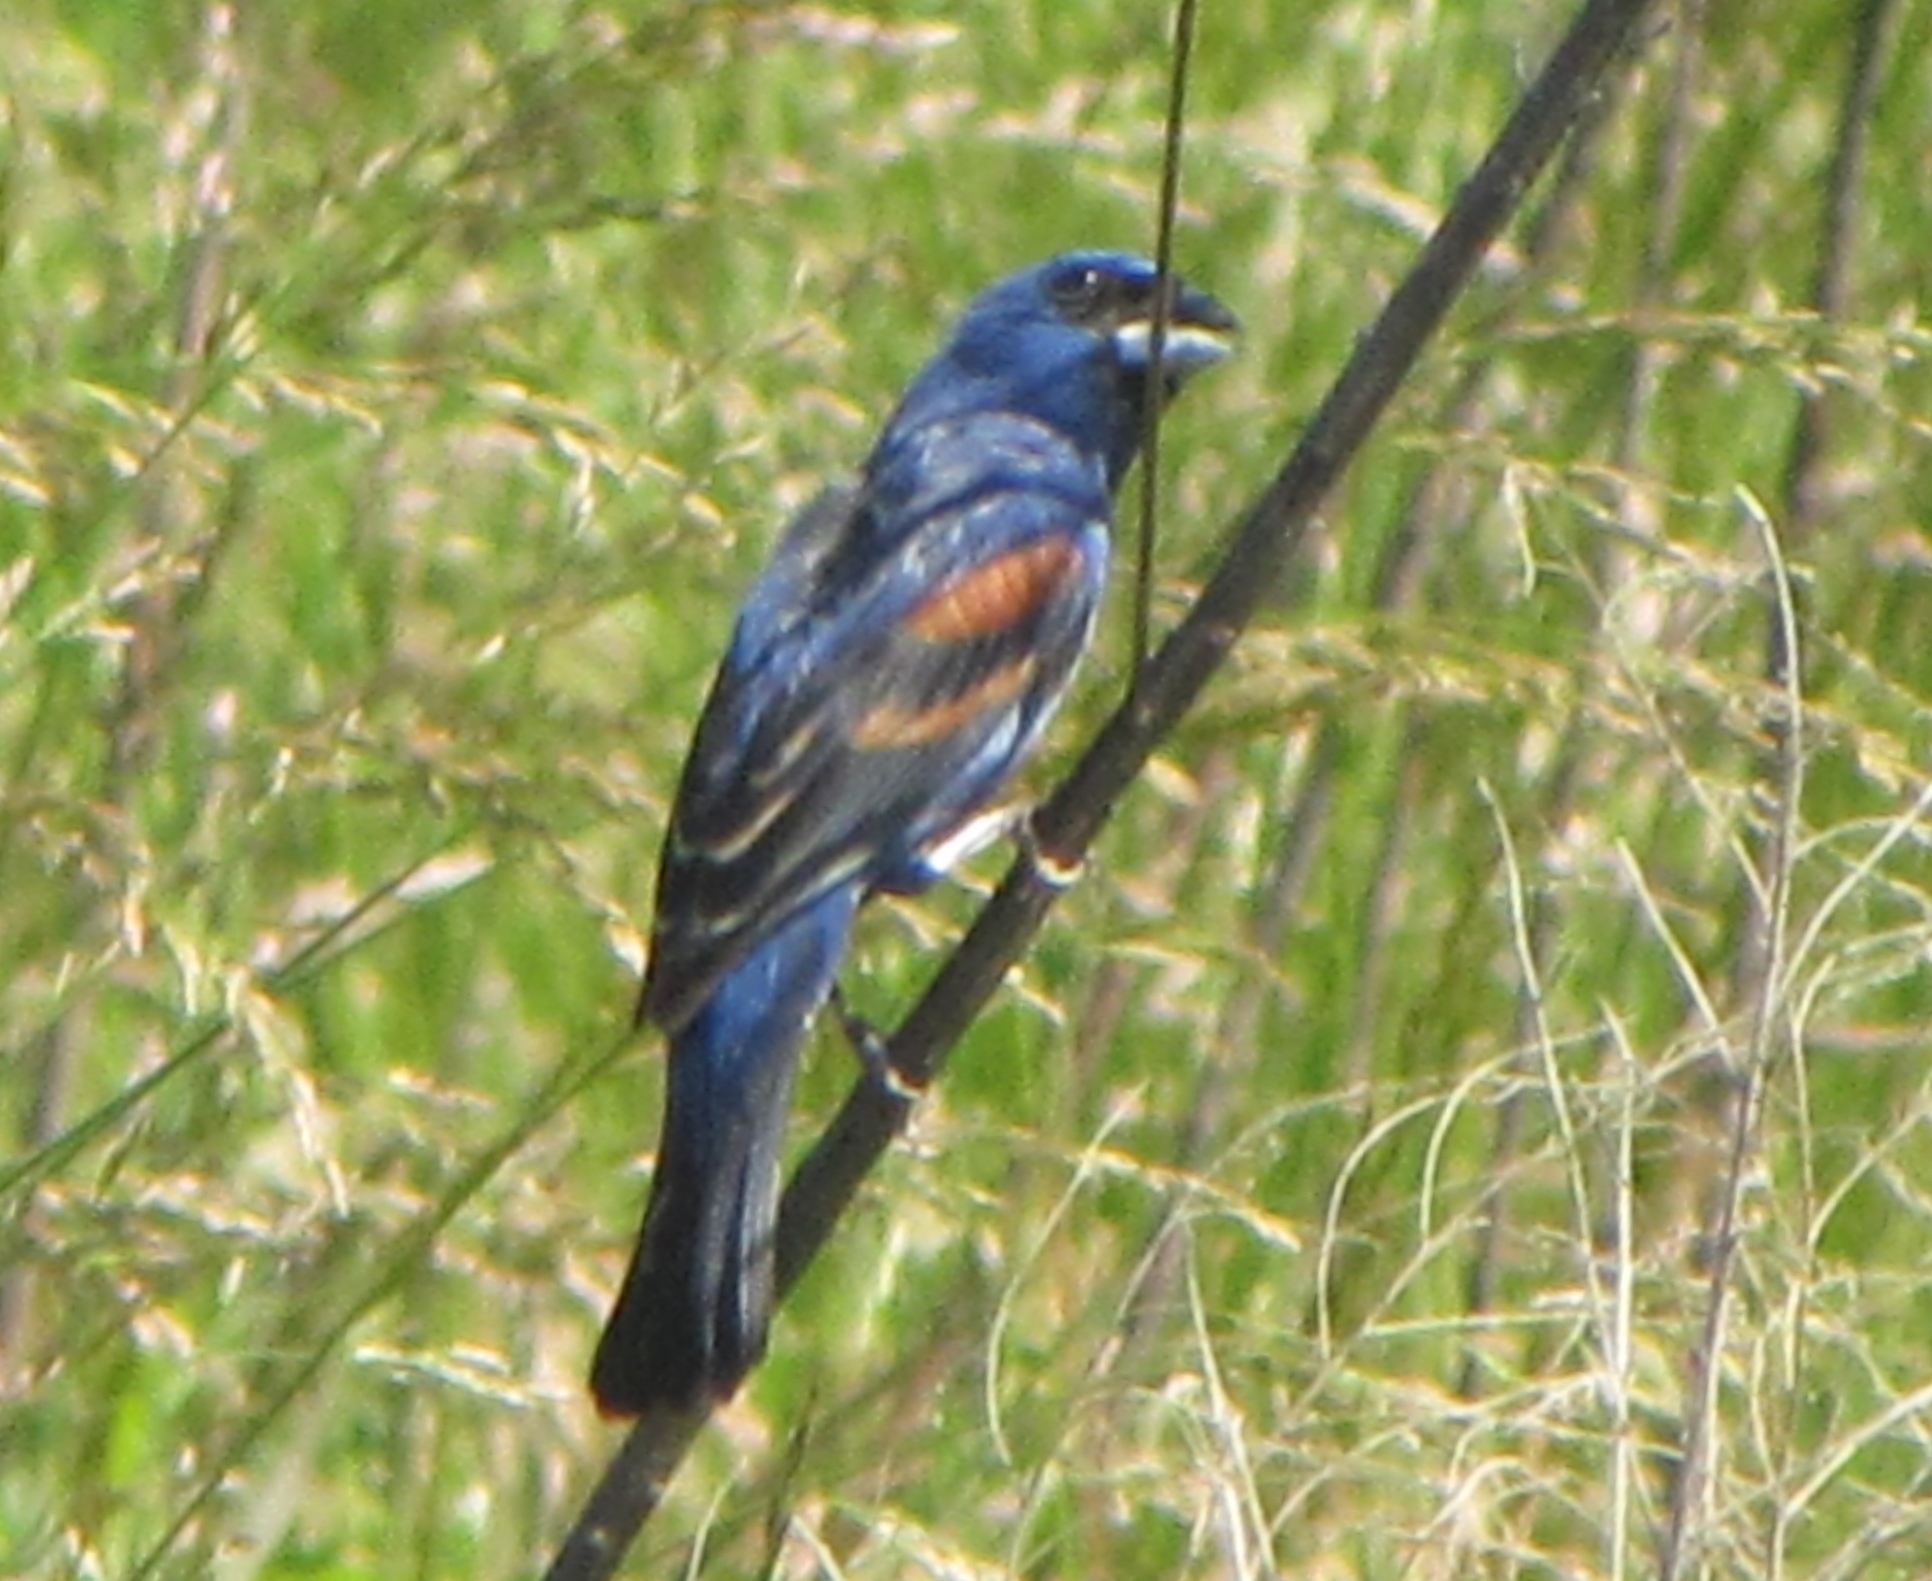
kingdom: Animalia
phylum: Chordata
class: Aves
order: Passeriformes
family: Cardinalidae
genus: Passerina
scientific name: Passerina caerulea
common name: Blue grosbeak
